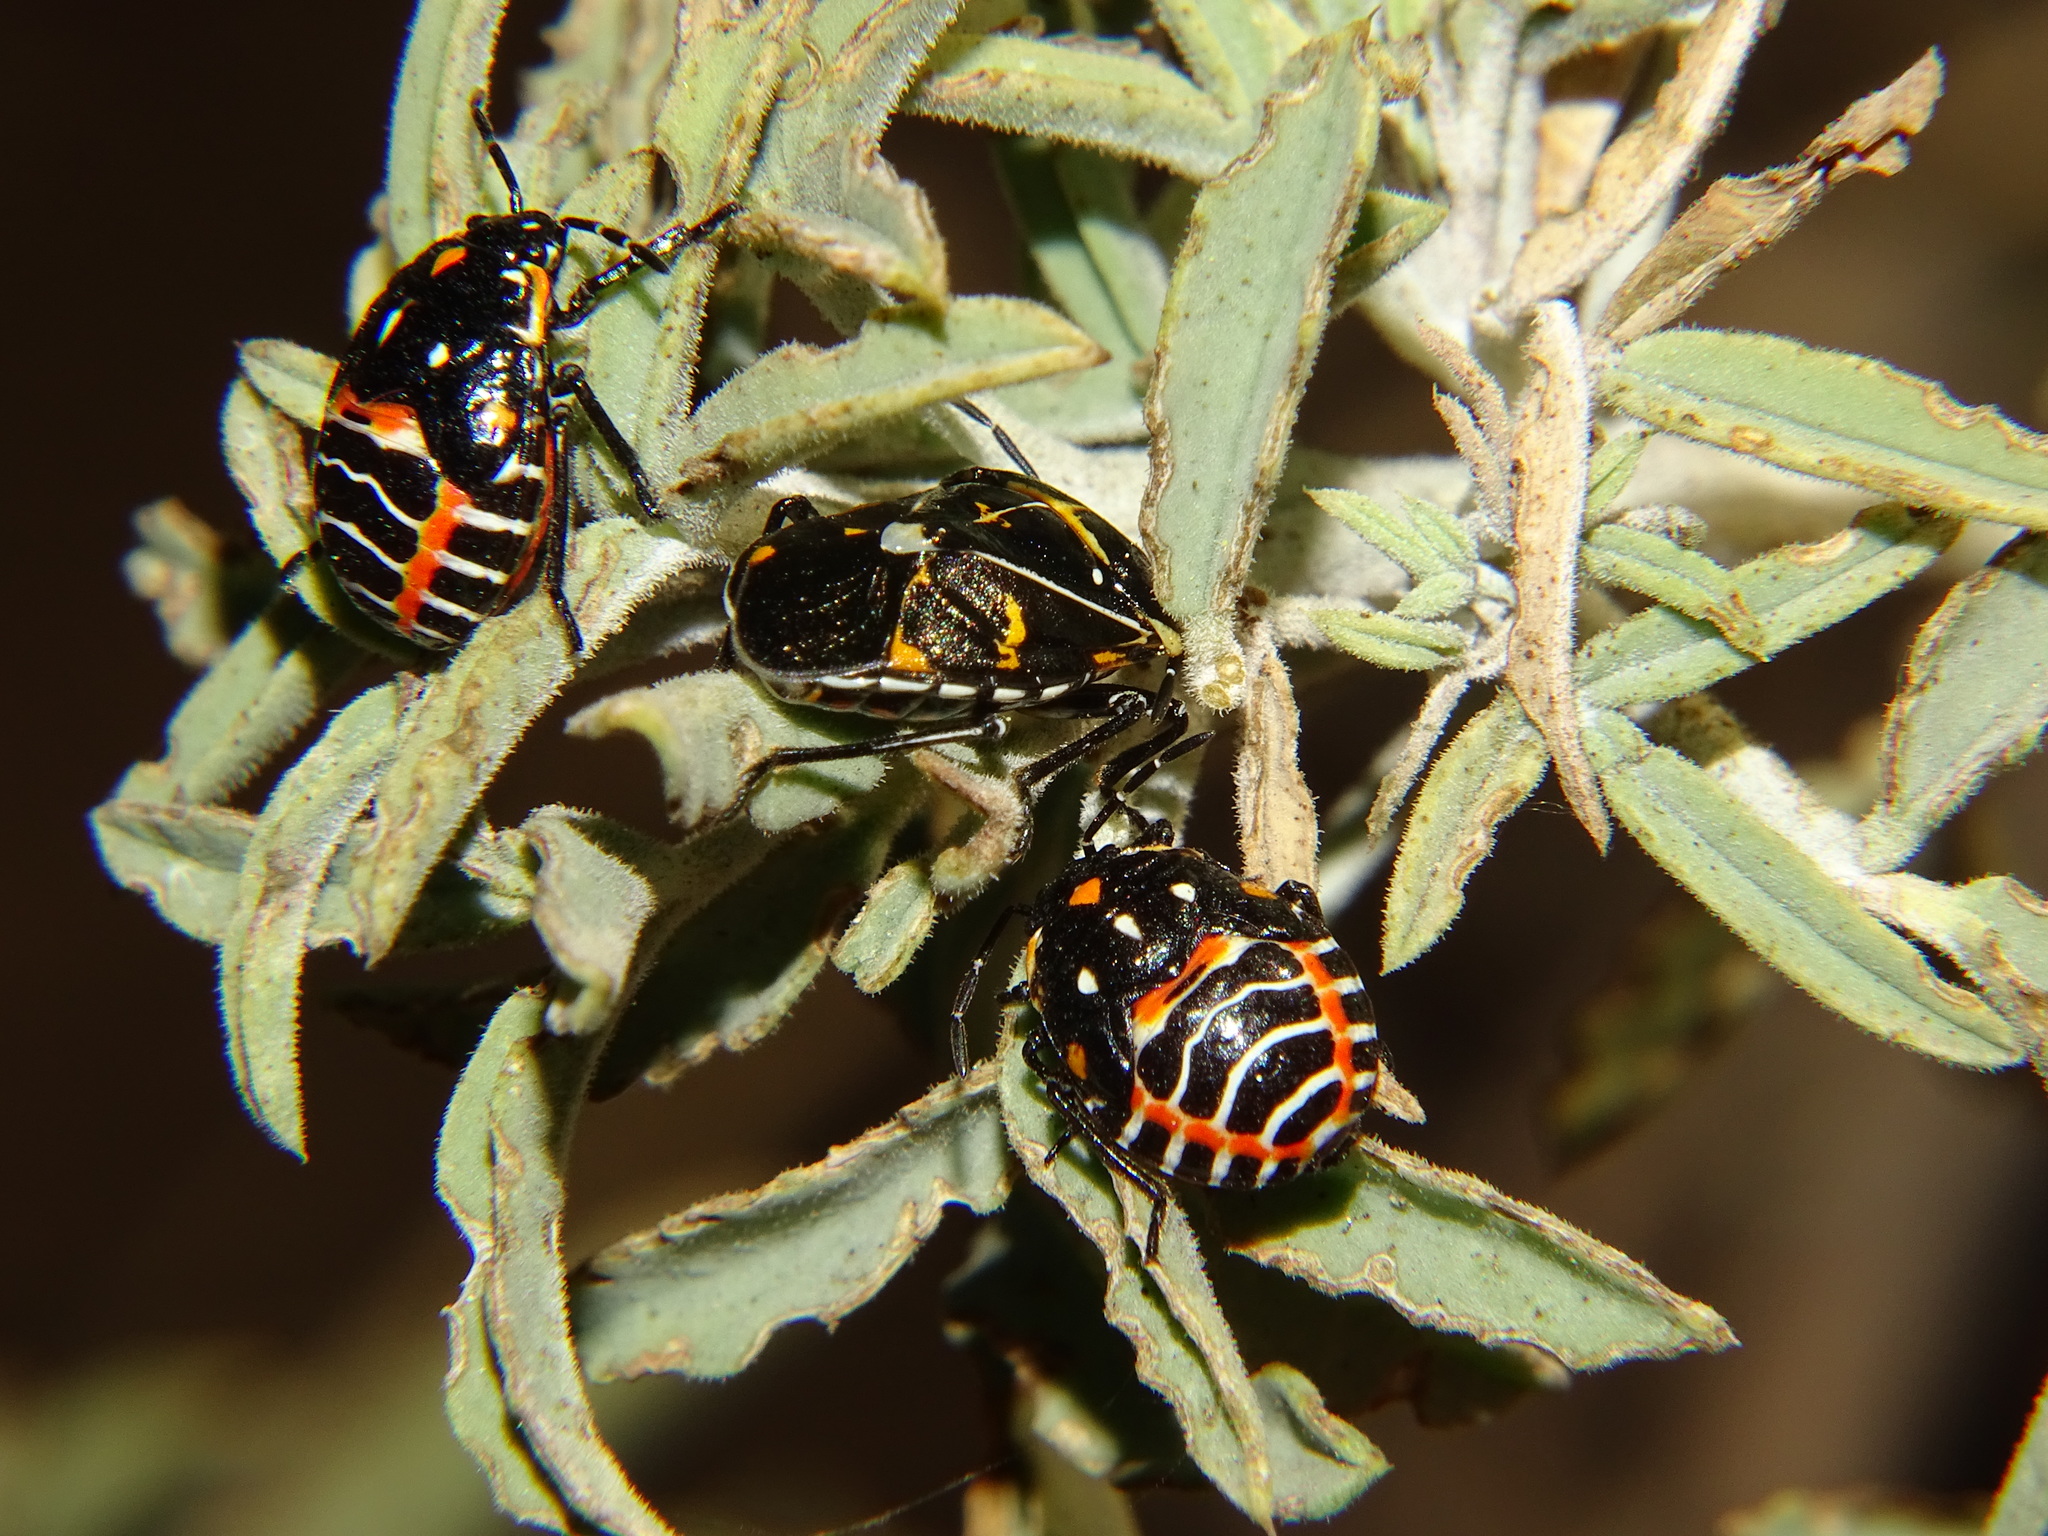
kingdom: Animalia
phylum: Arthropoda
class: Insecta
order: Hemiptera
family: Pentatomidae
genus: Murgantia
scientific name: Murgantia histrionica
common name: Harlequin bug
